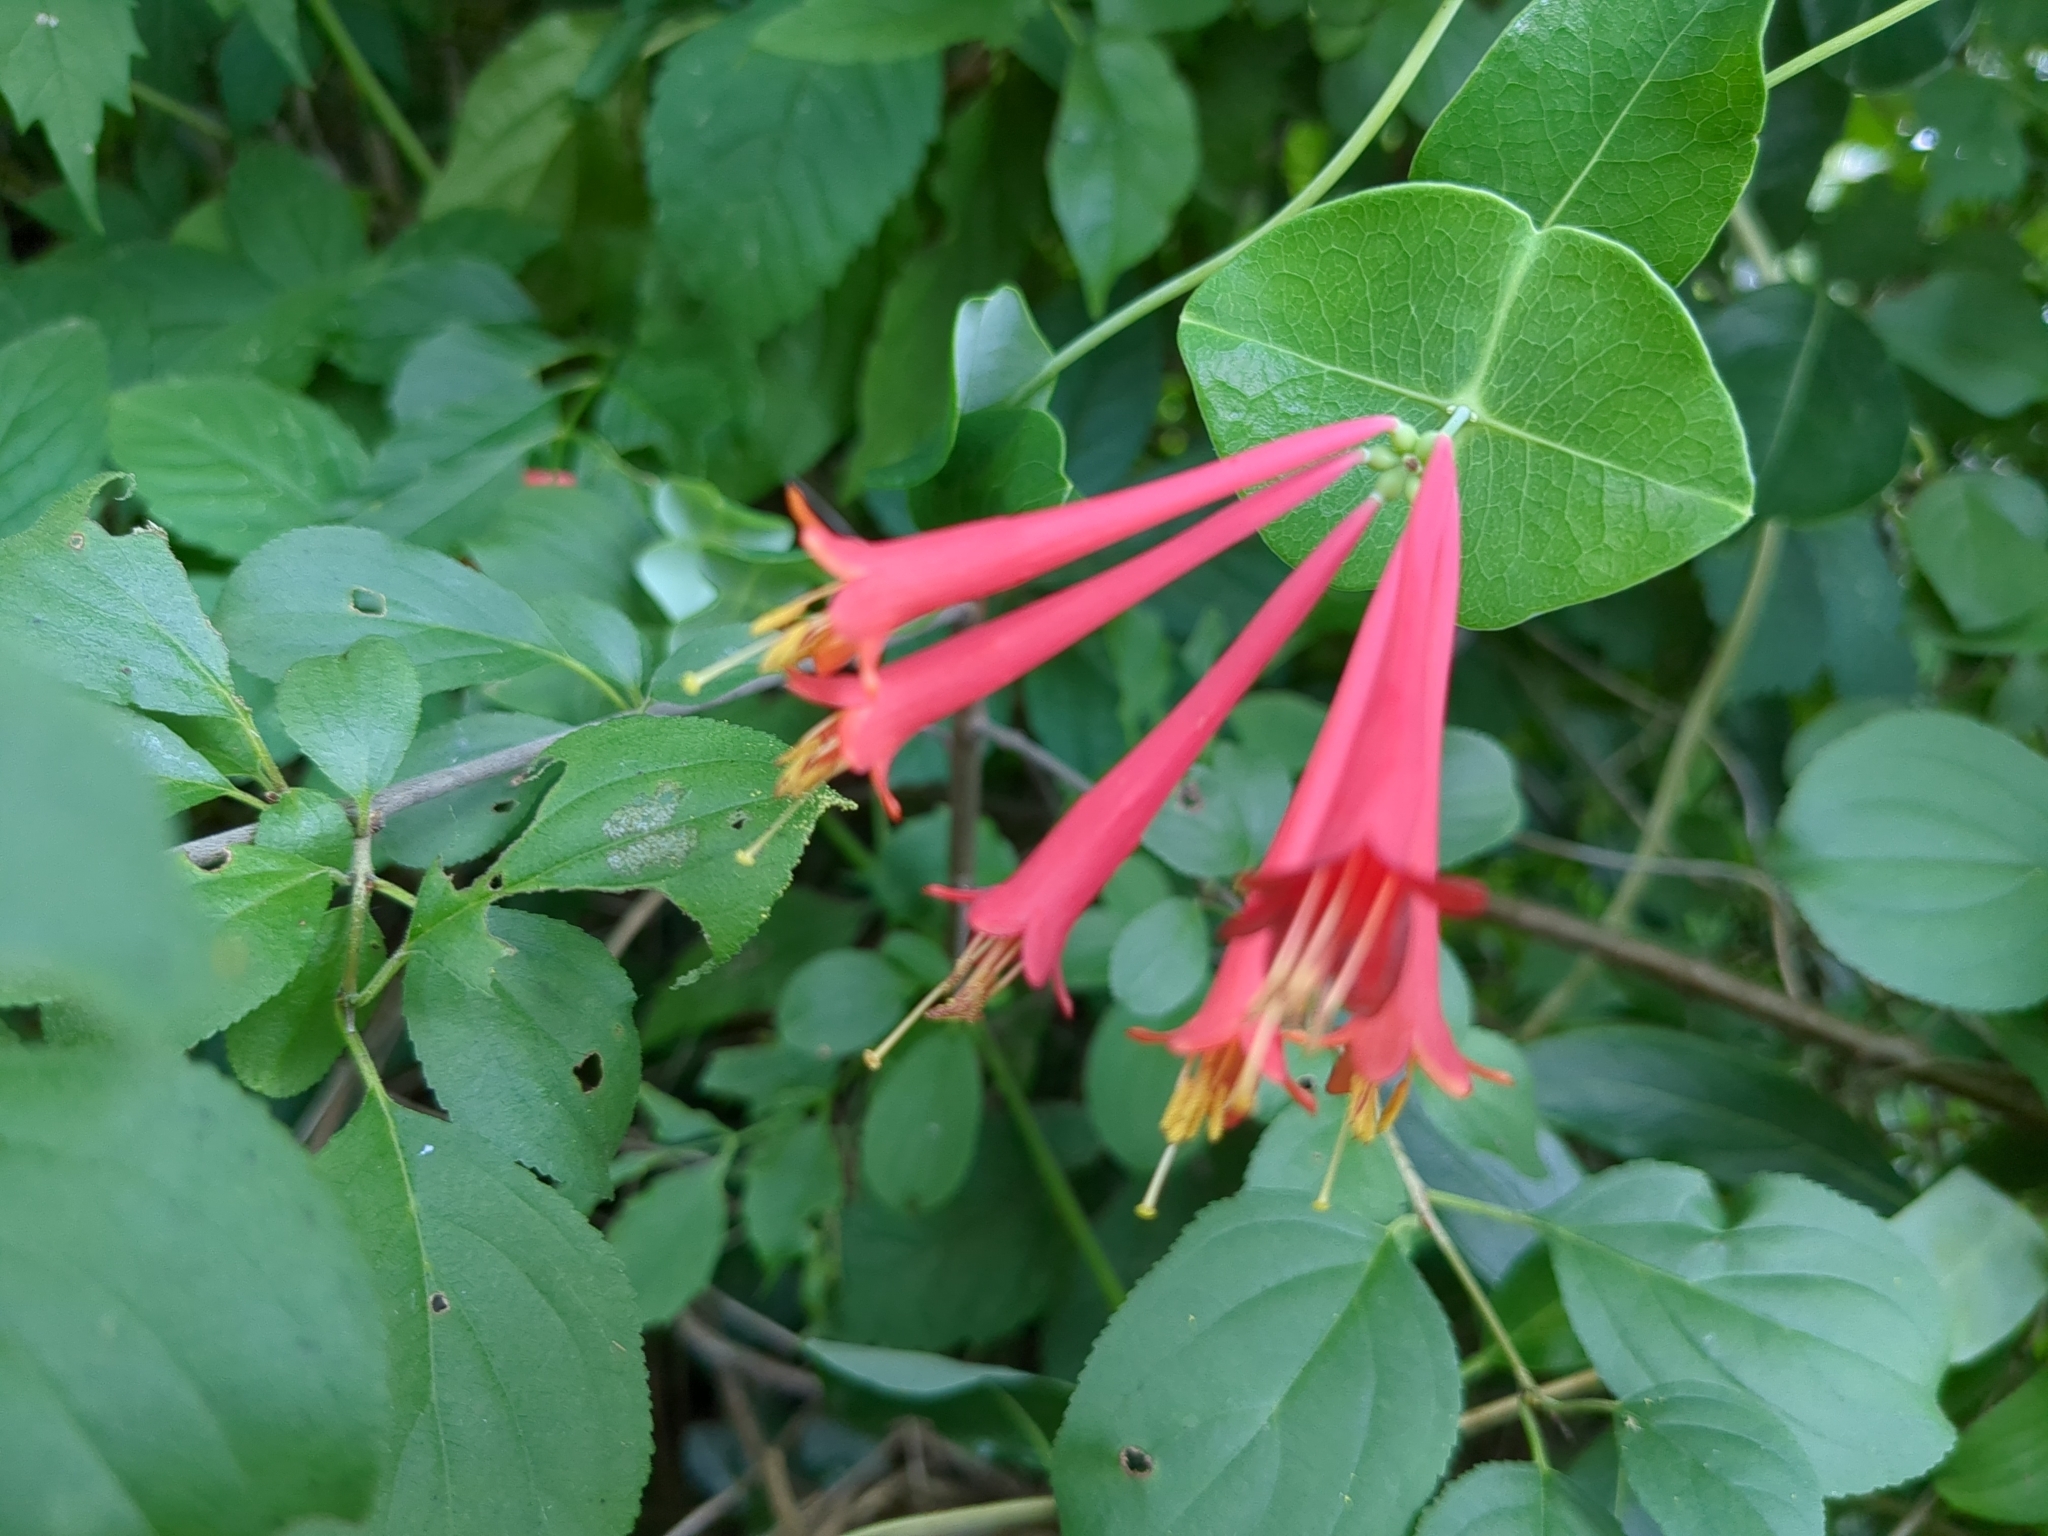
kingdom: Plantae
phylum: Tracheophyta
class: Magnoliopsida
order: Dipsacales
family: Caprifoliaceae
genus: Lonicera
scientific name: Lonicera sempervirens
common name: Coral honeysuckle
